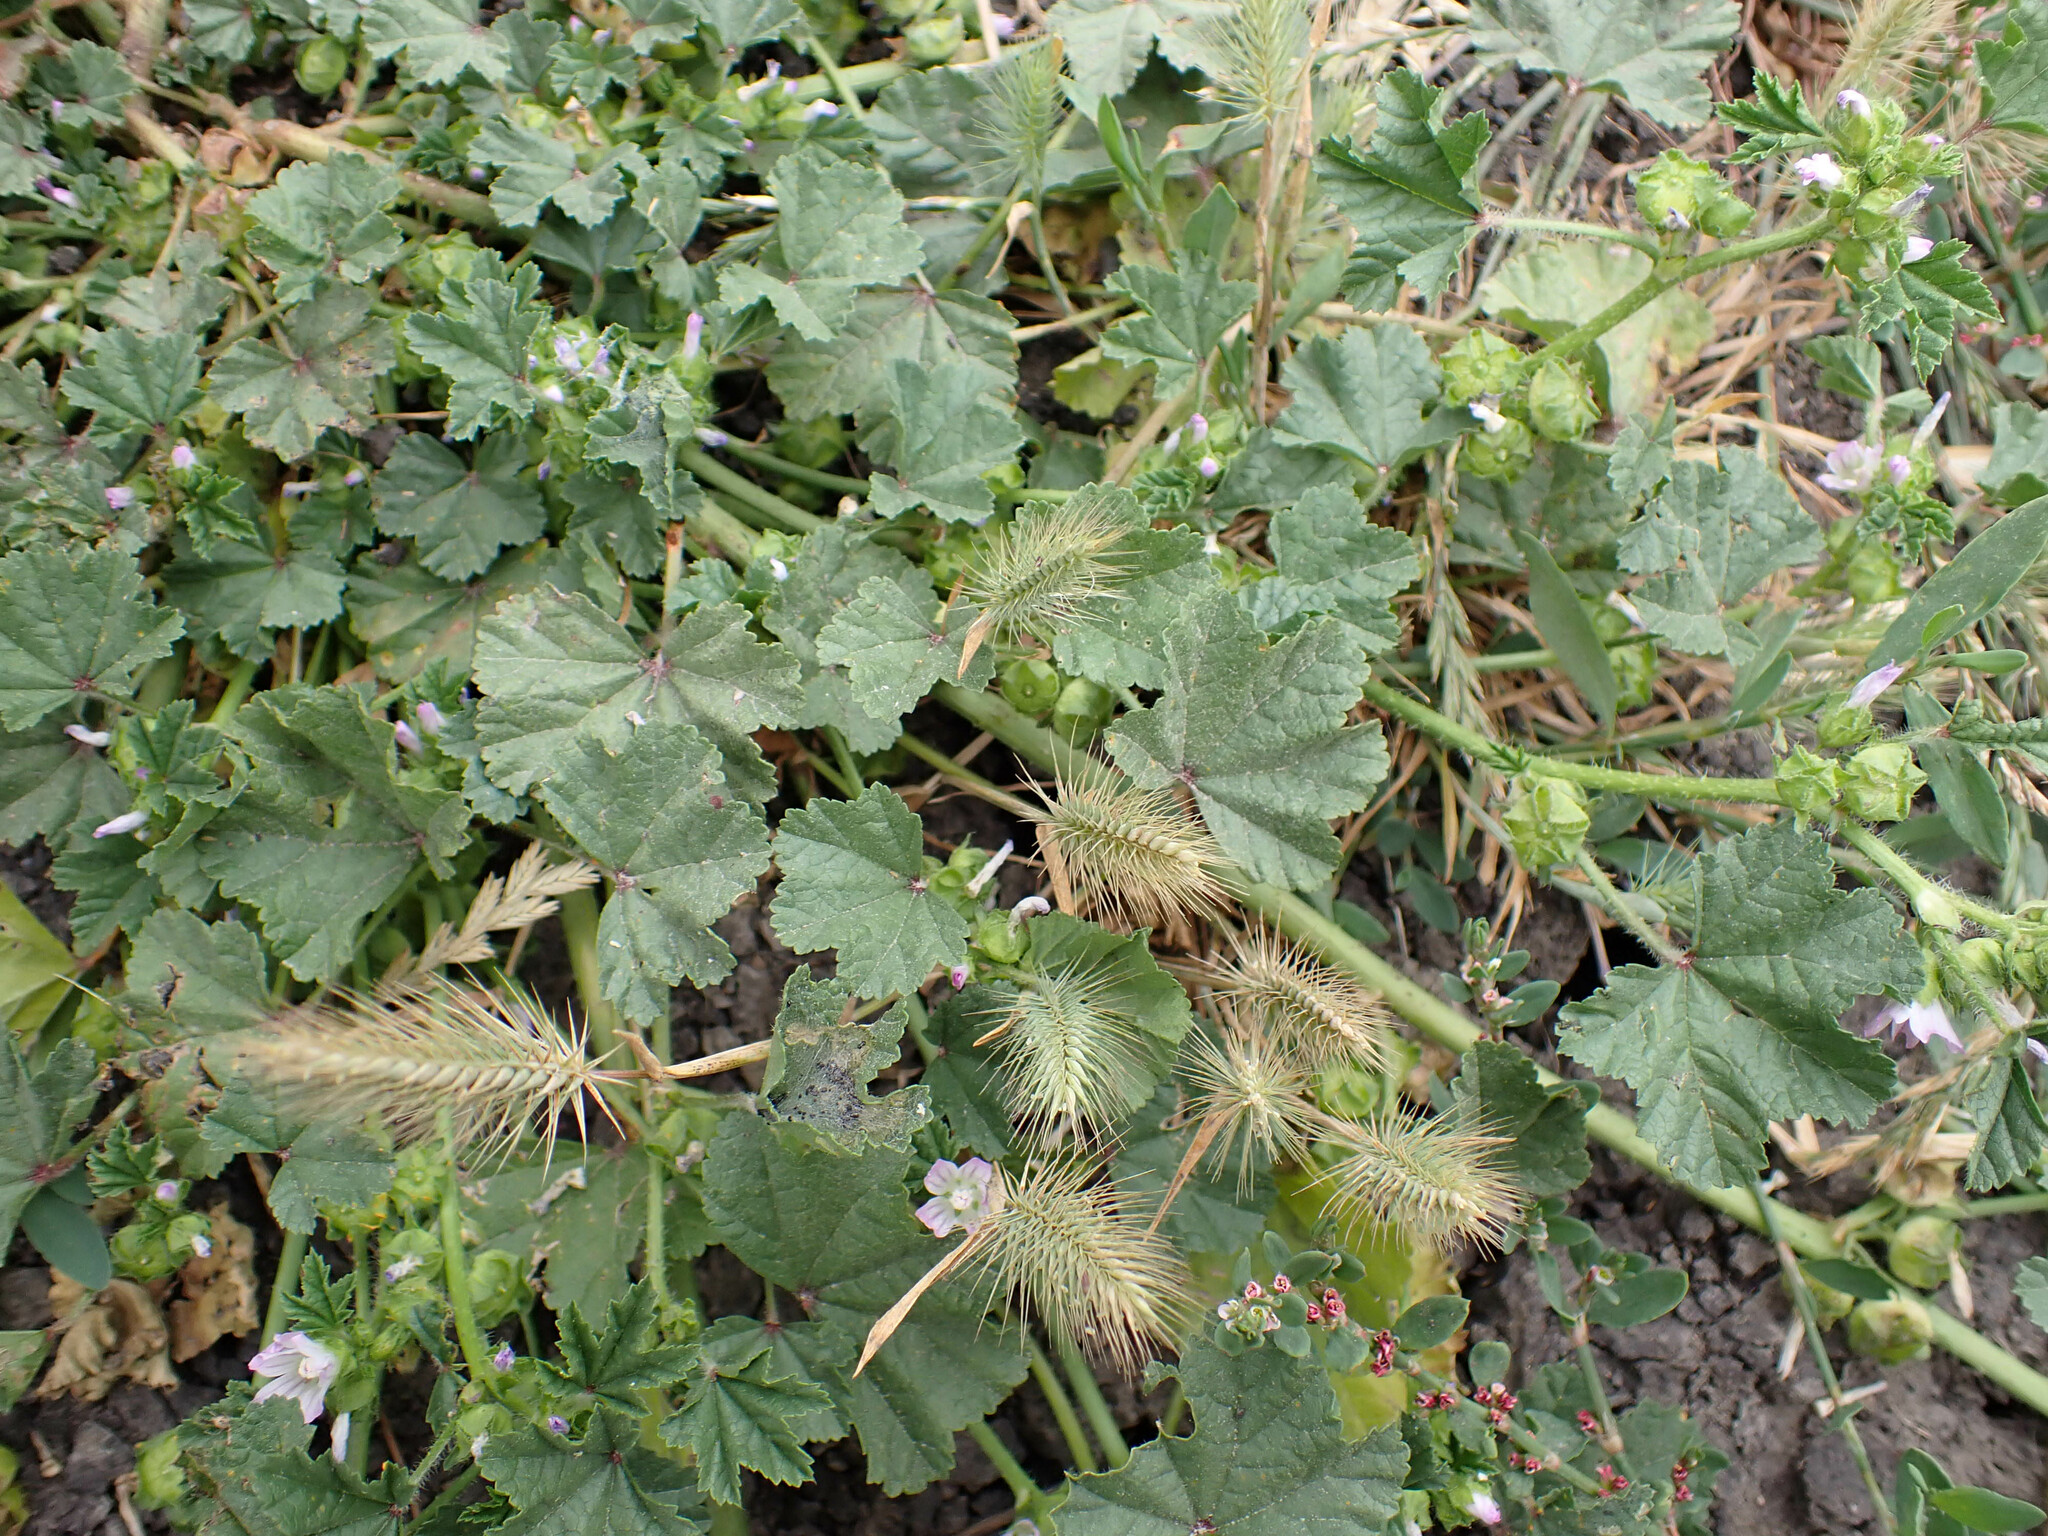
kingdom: Plantae
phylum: Tracheophyta
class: Magnoliopsida
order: Malvales
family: Malvaceae
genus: Malva
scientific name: Malva nicaeensis
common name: French mallow
